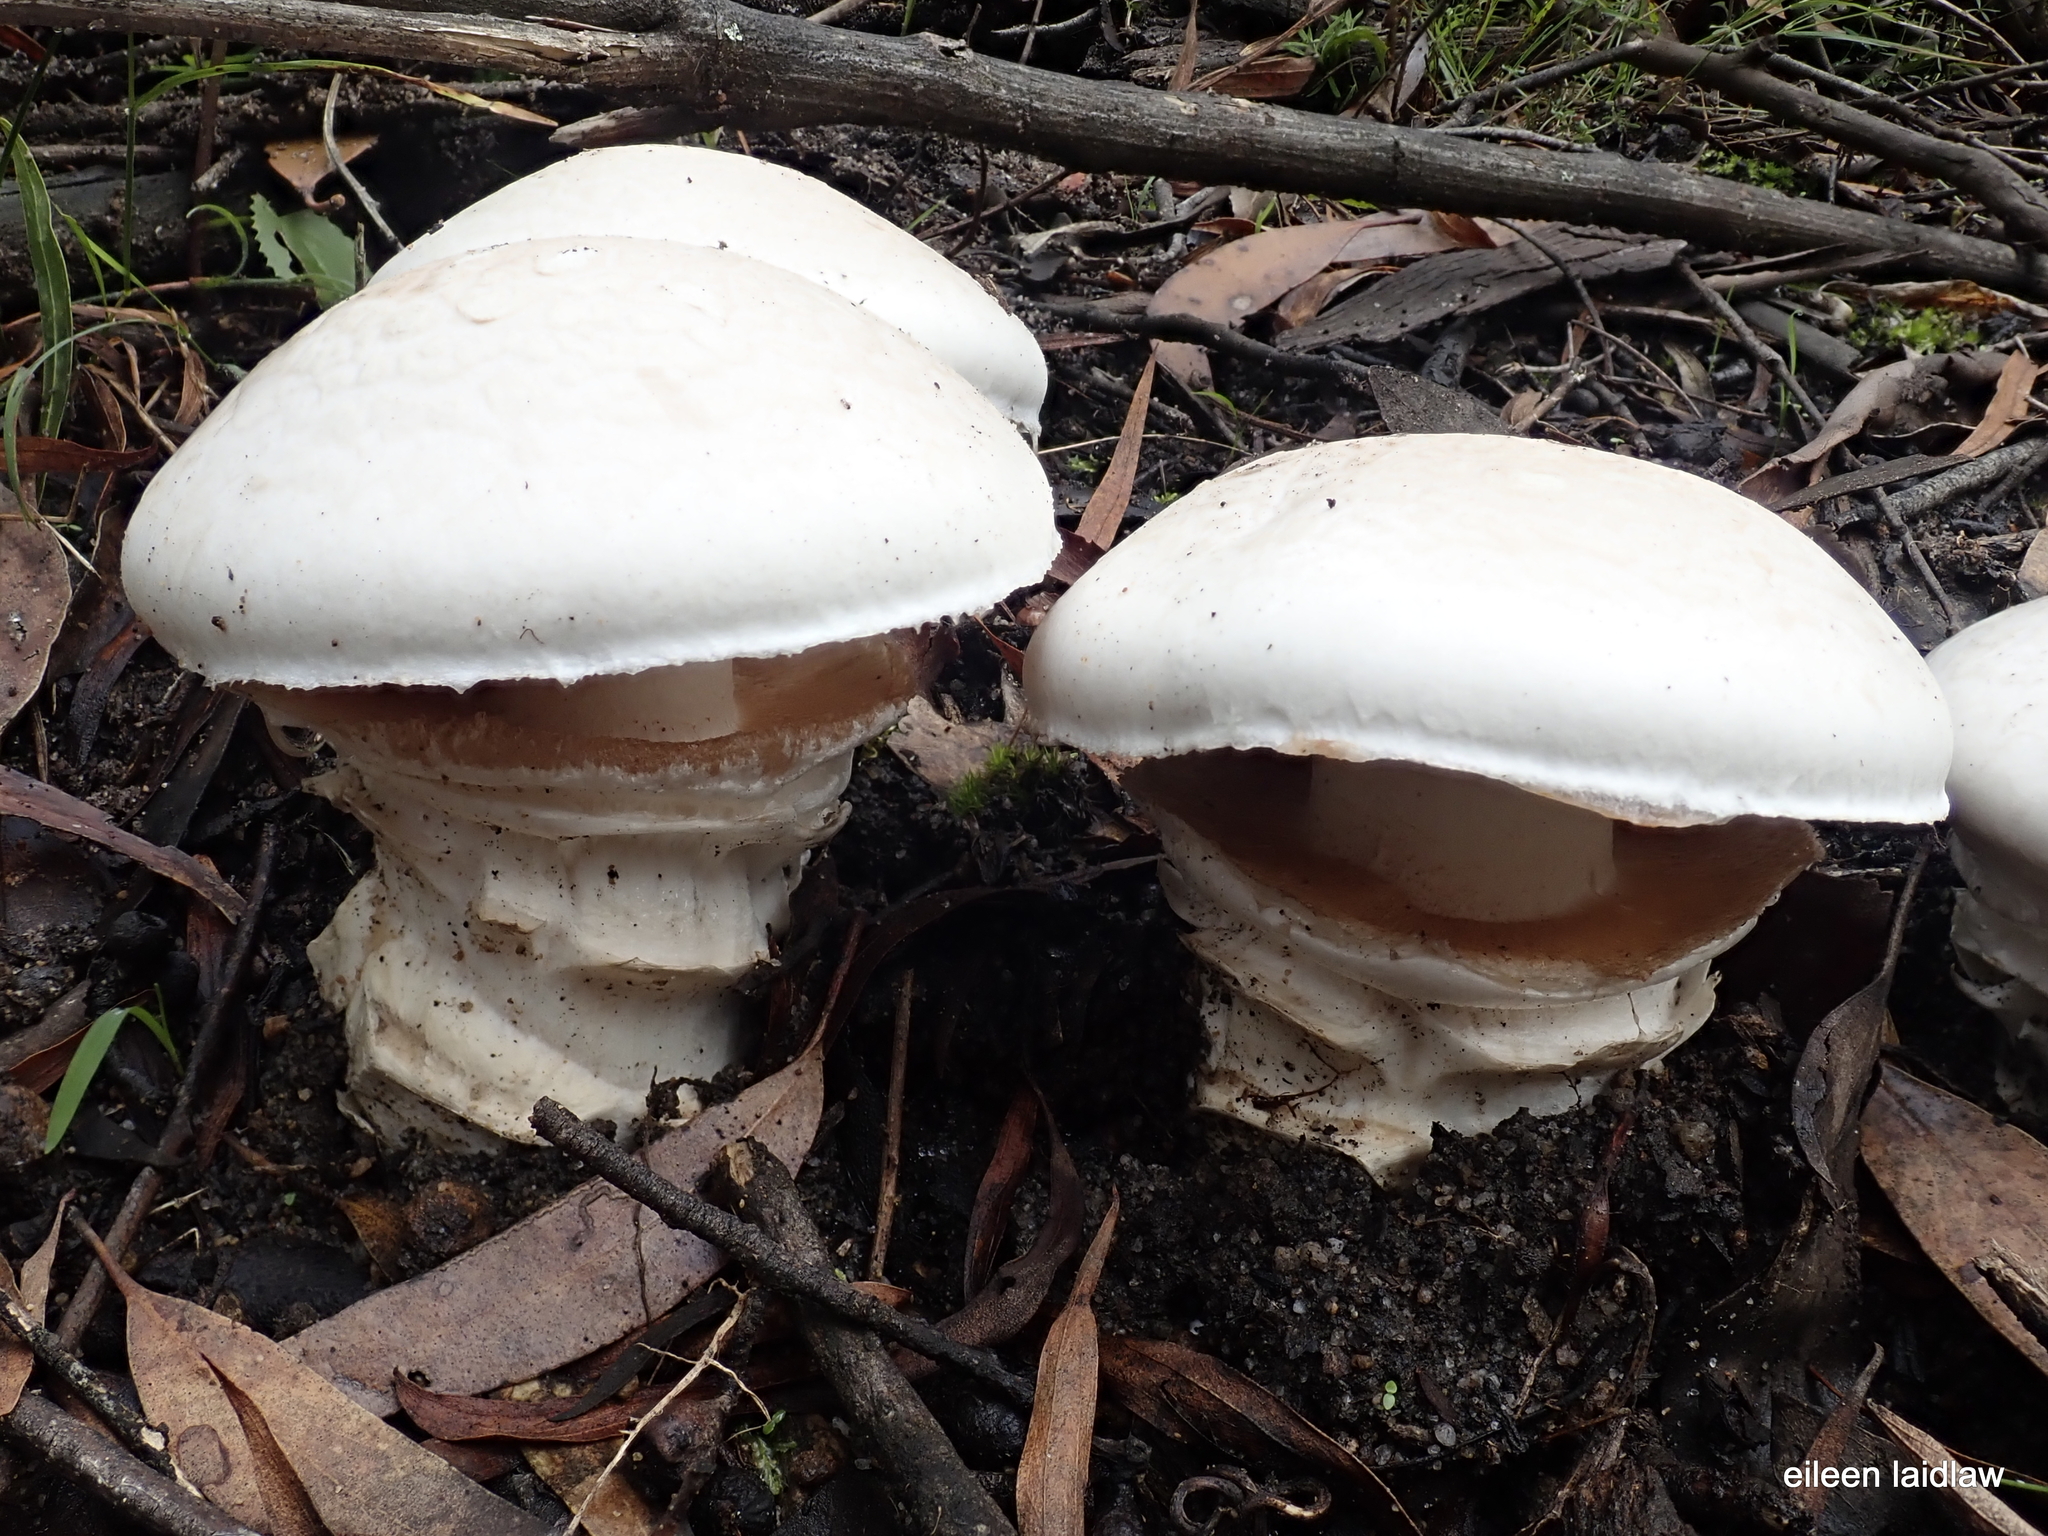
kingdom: Fungi
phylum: Basidiomycota
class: Agaricomycetes
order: Agaricales
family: Cortinariaceae
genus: Austrocortinarius
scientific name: Austrocortinarius australiensis
